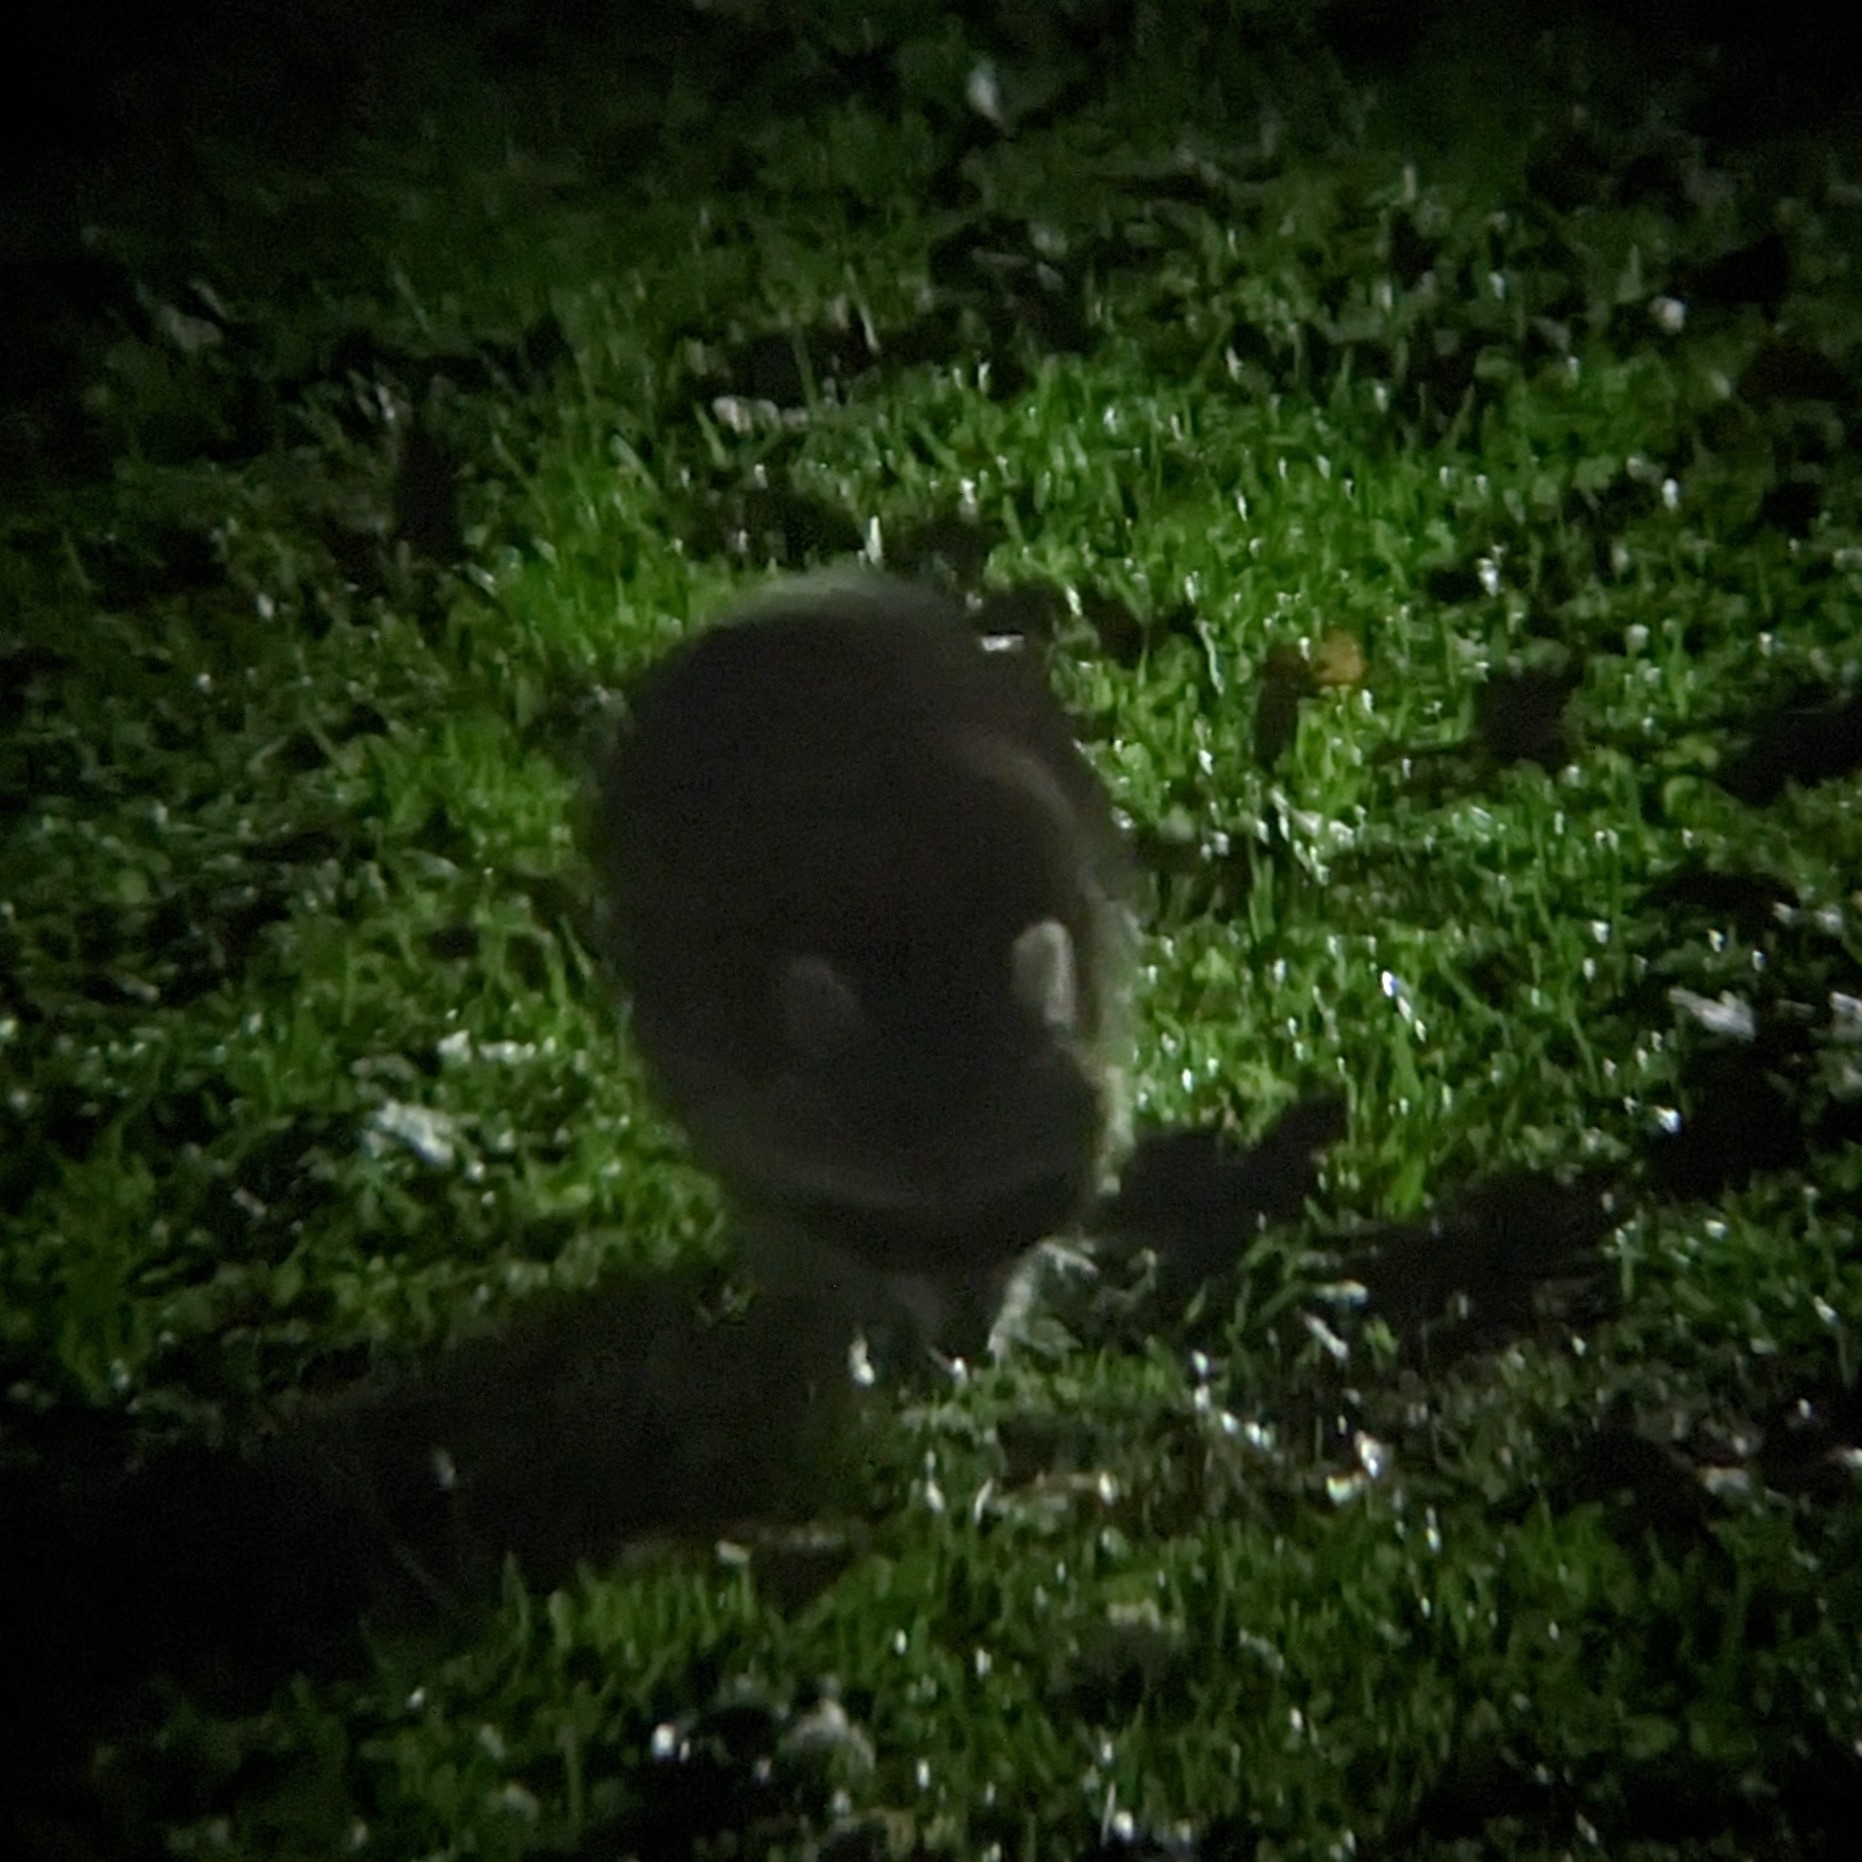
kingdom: Animalia
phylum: Chordata
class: Mammalia
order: Carnivora
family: Procyonidae
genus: Procyon
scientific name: Procyon lotor
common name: Raccoon
